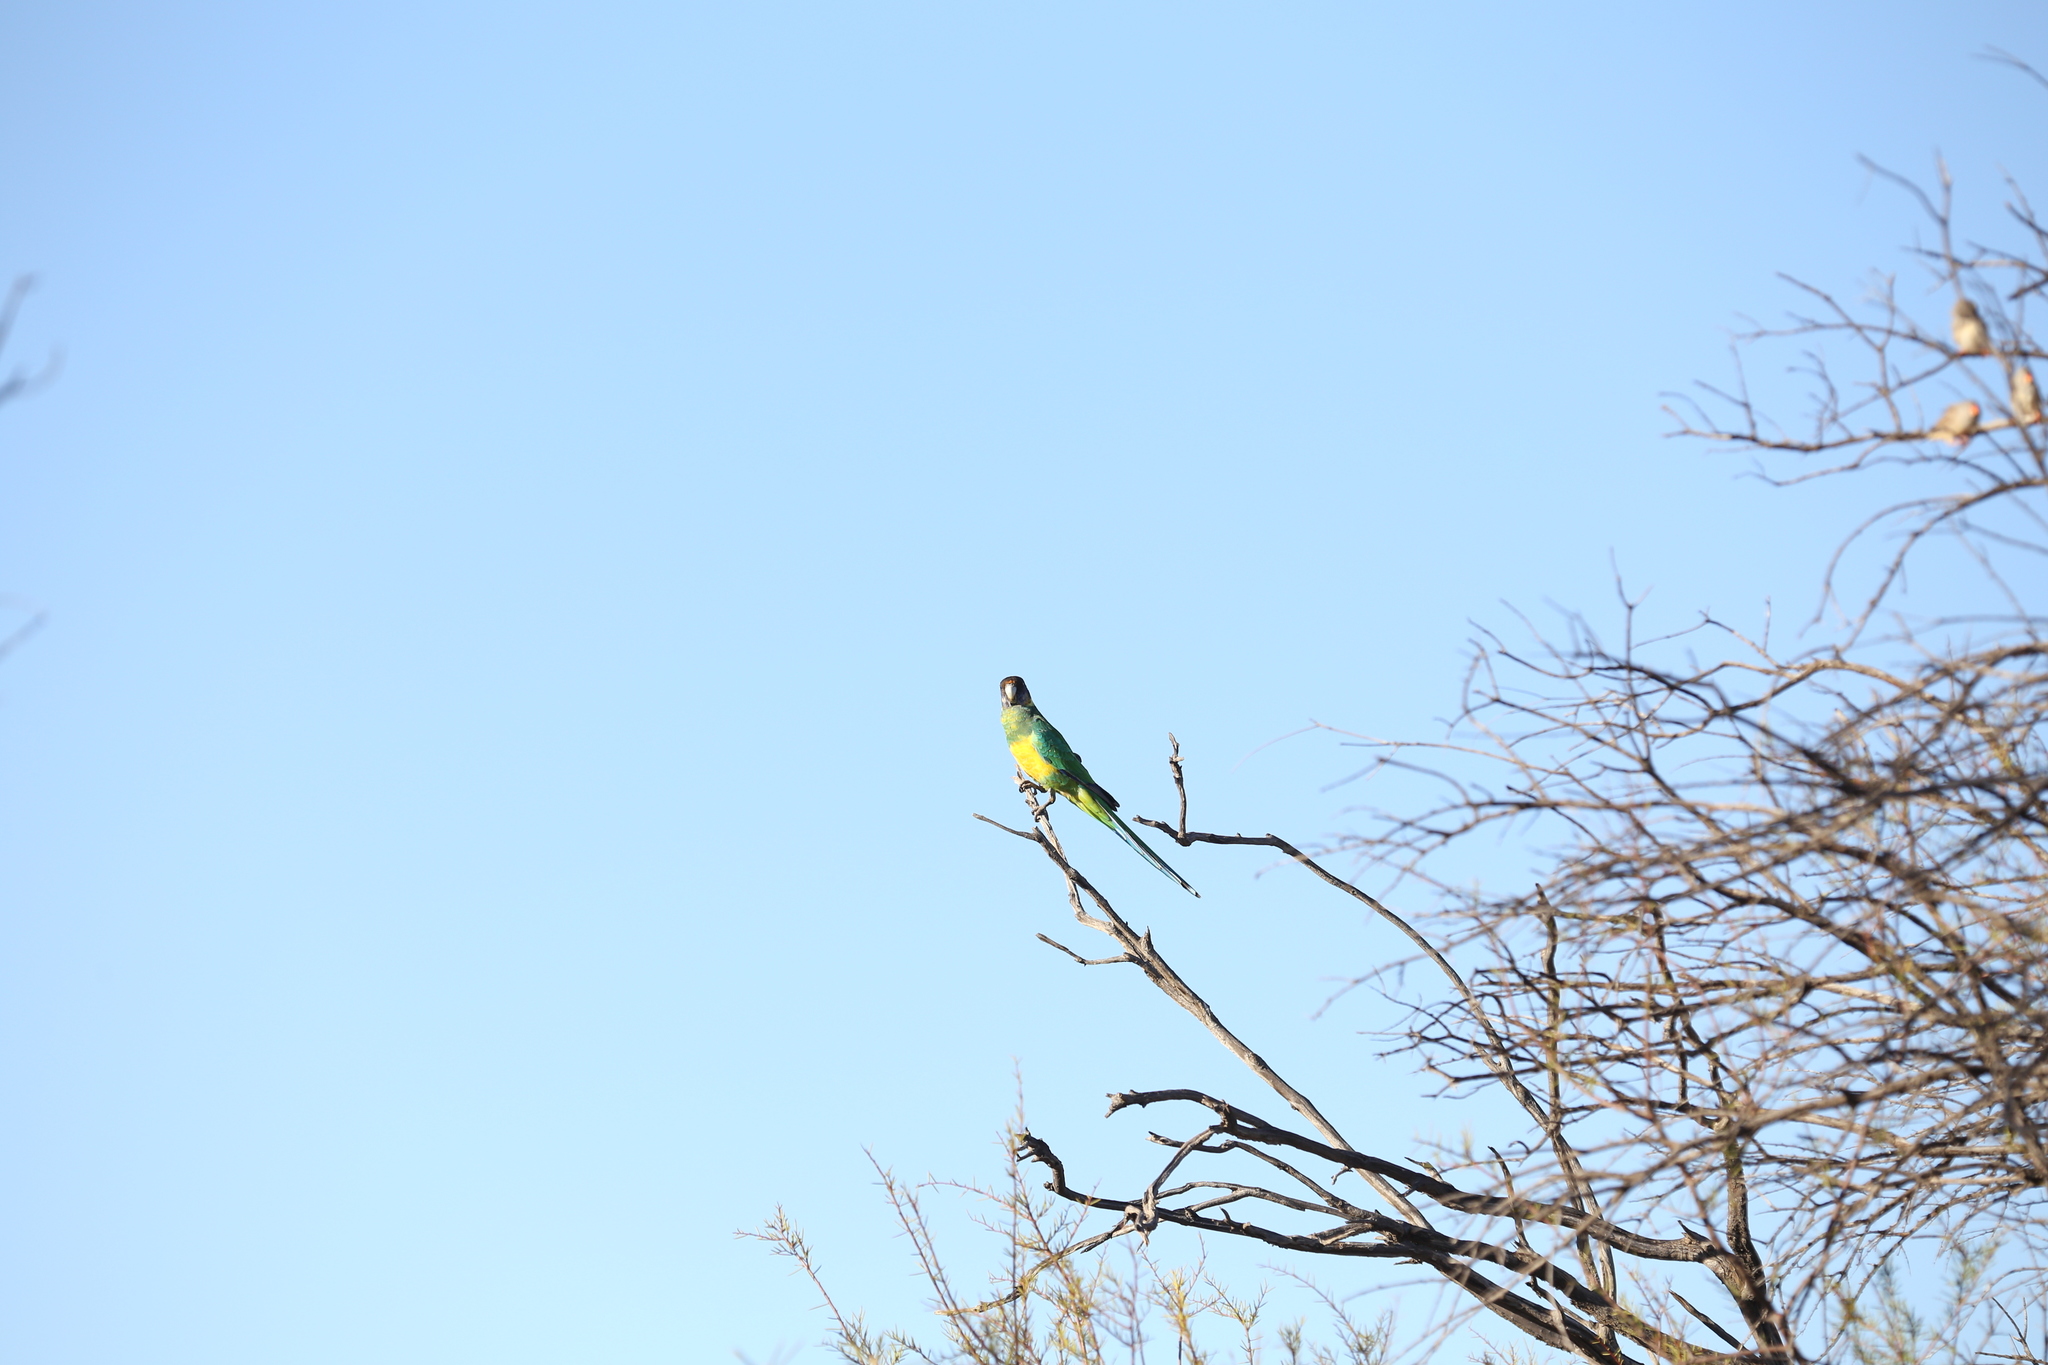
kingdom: Animalia
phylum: Chordata
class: Aves
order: Psittaciformes
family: Psittacidae
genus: Barnardius
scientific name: Barnardius zonarius
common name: Australian ringneck
